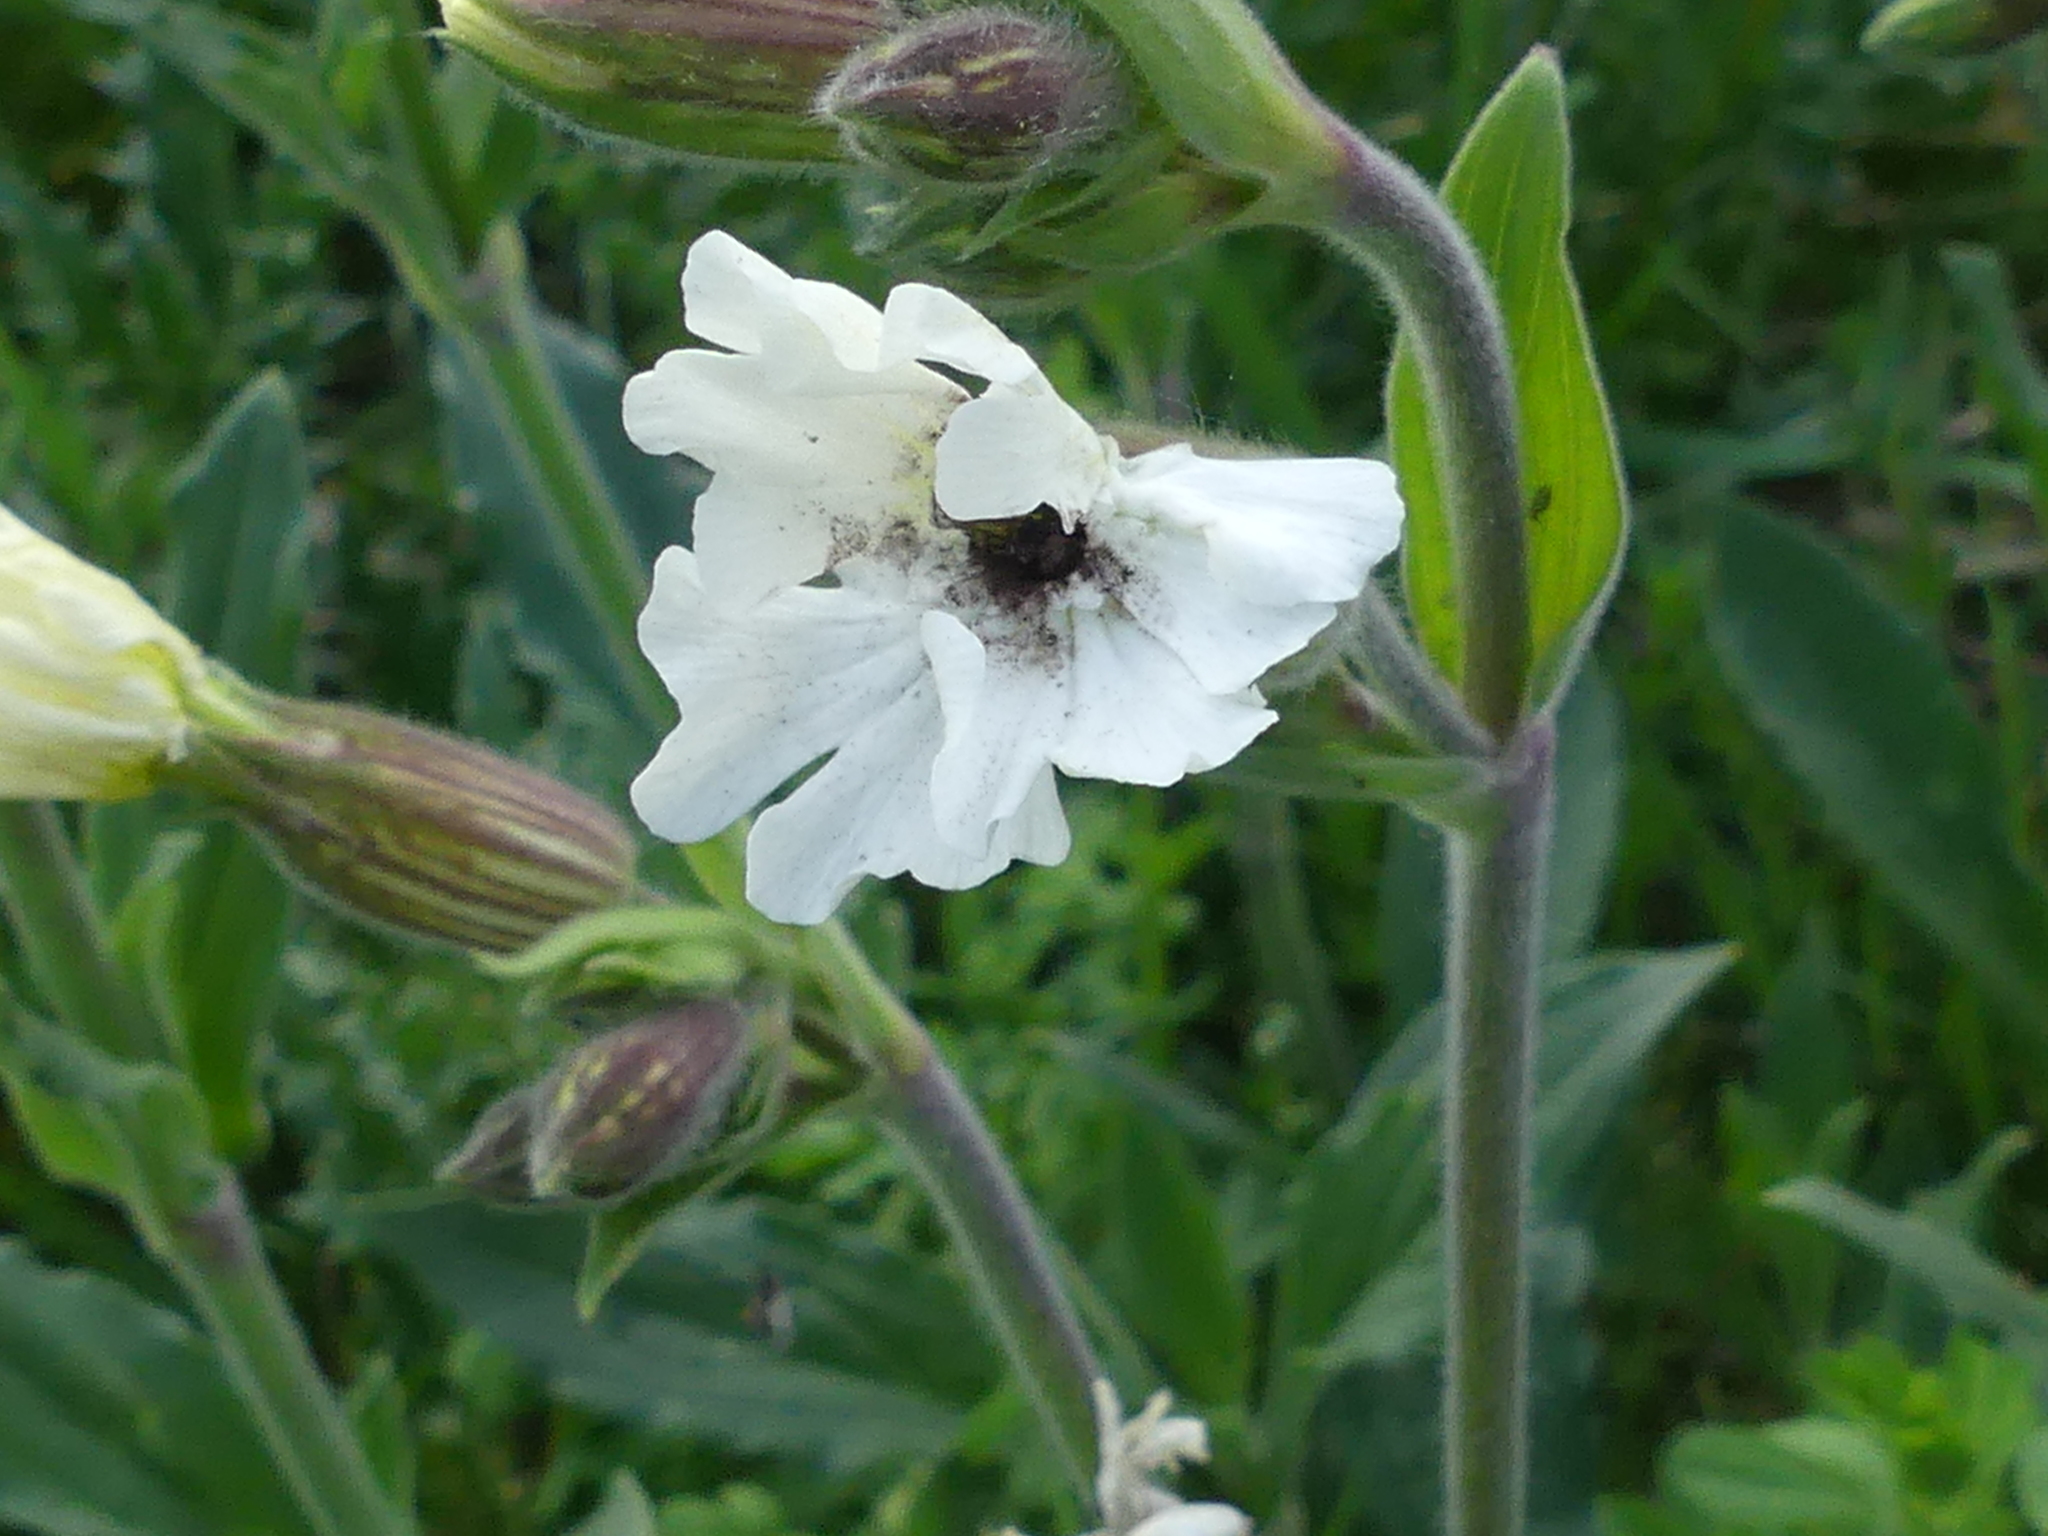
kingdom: Fungi
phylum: Basidiomycota
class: Microbotryomycetes
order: Microbotryales
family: Microbotryaceae
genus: Microbotryum
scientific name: Microbotryum lychnidis-dioicae
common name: Campion anther smut
